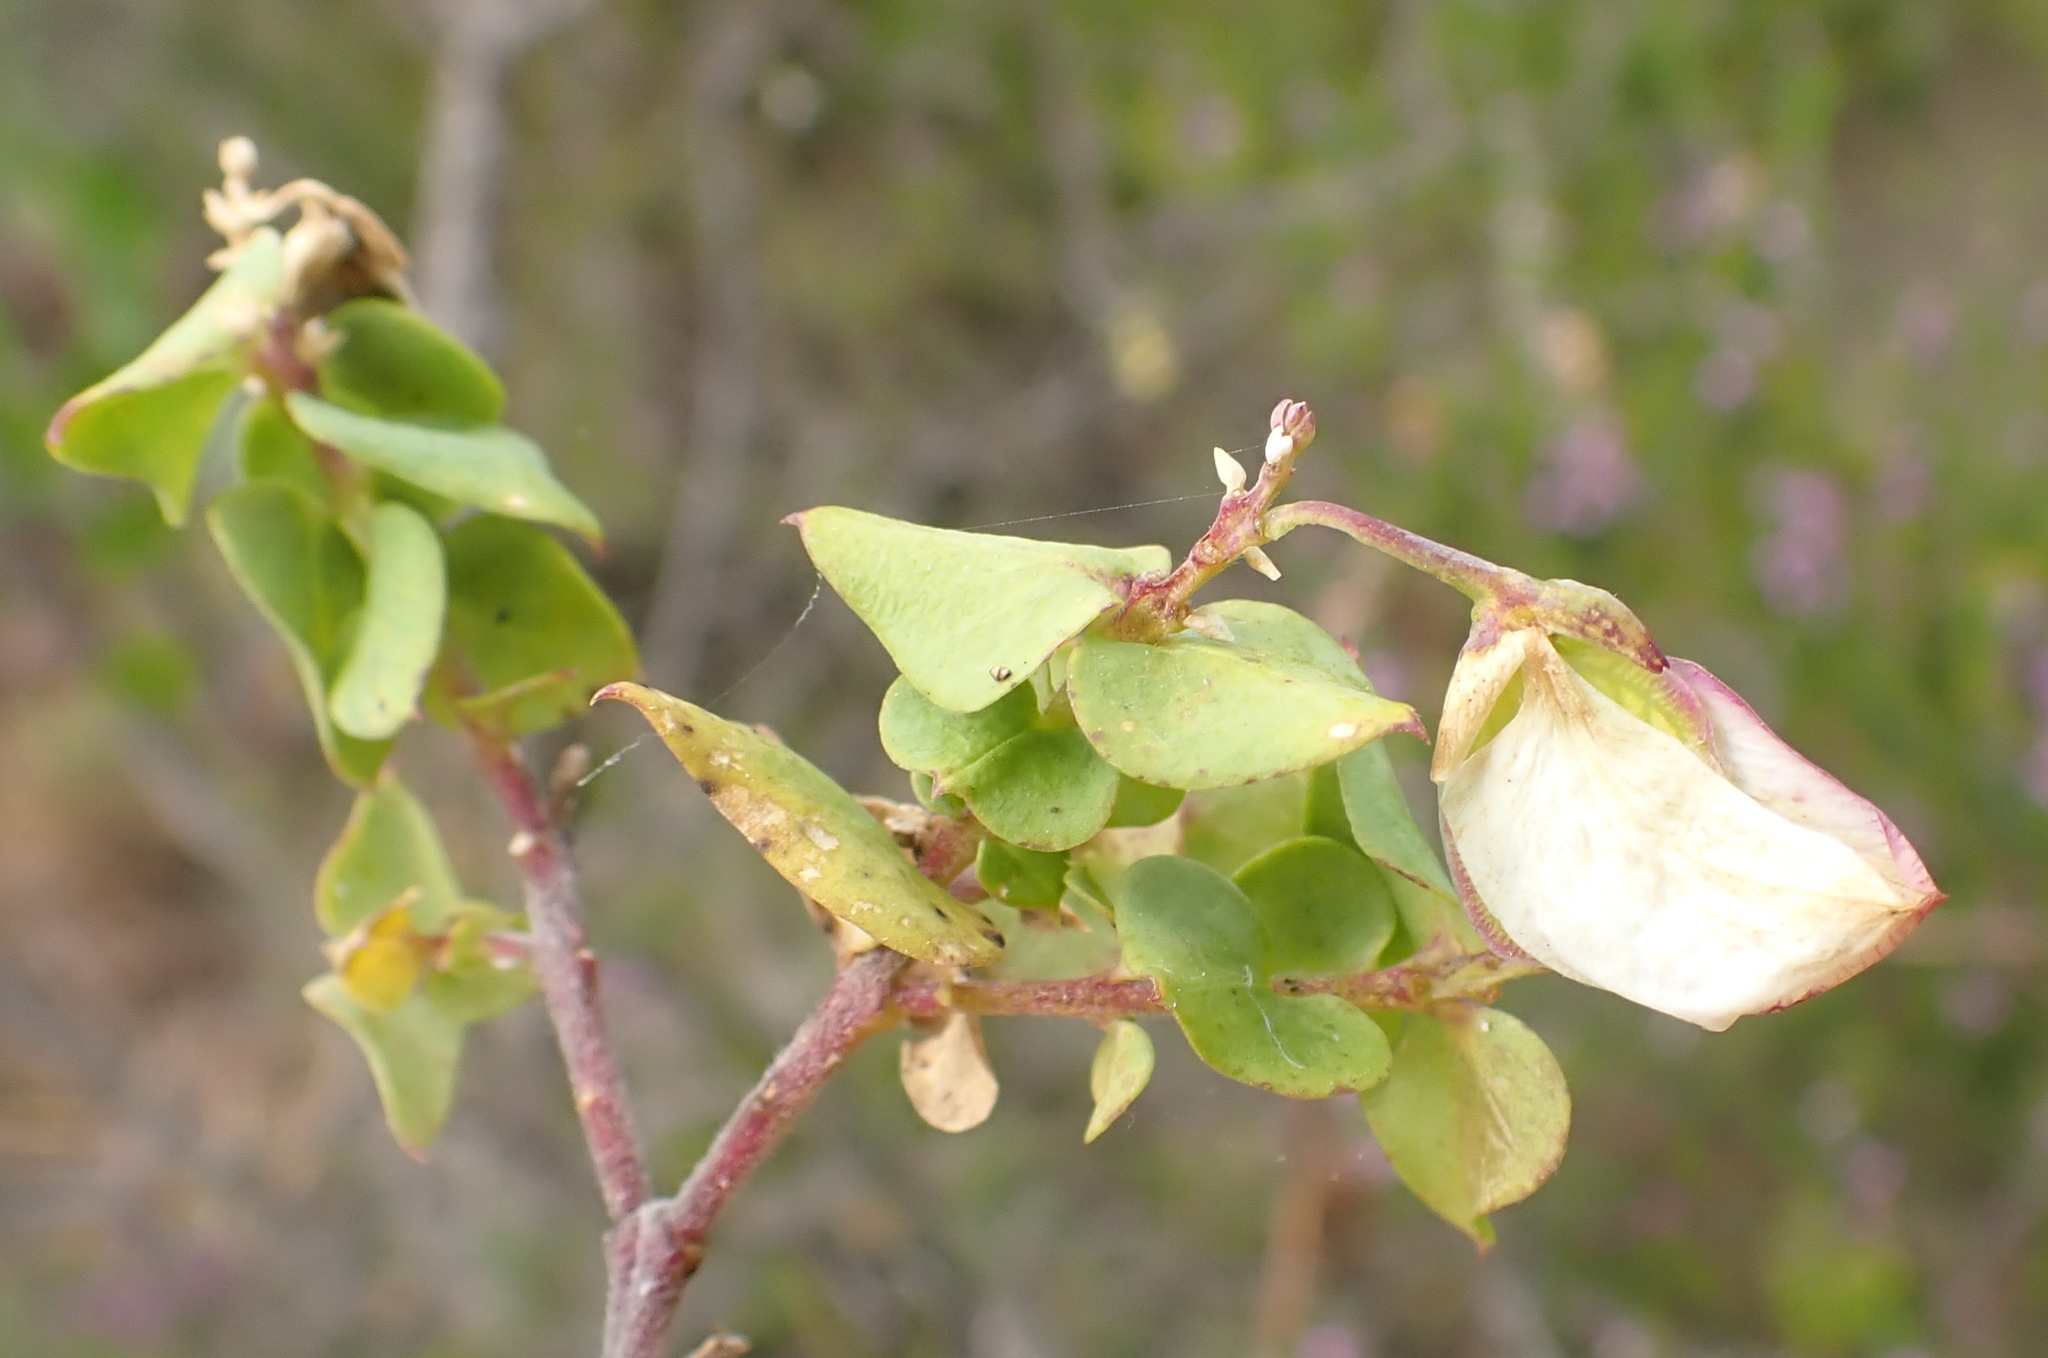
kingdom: Plantae
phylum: Tracheophyta
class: Magnoliopsida
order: Fabales
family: Polygalaceae
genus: Polygala
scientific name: Polygala fruticosa
